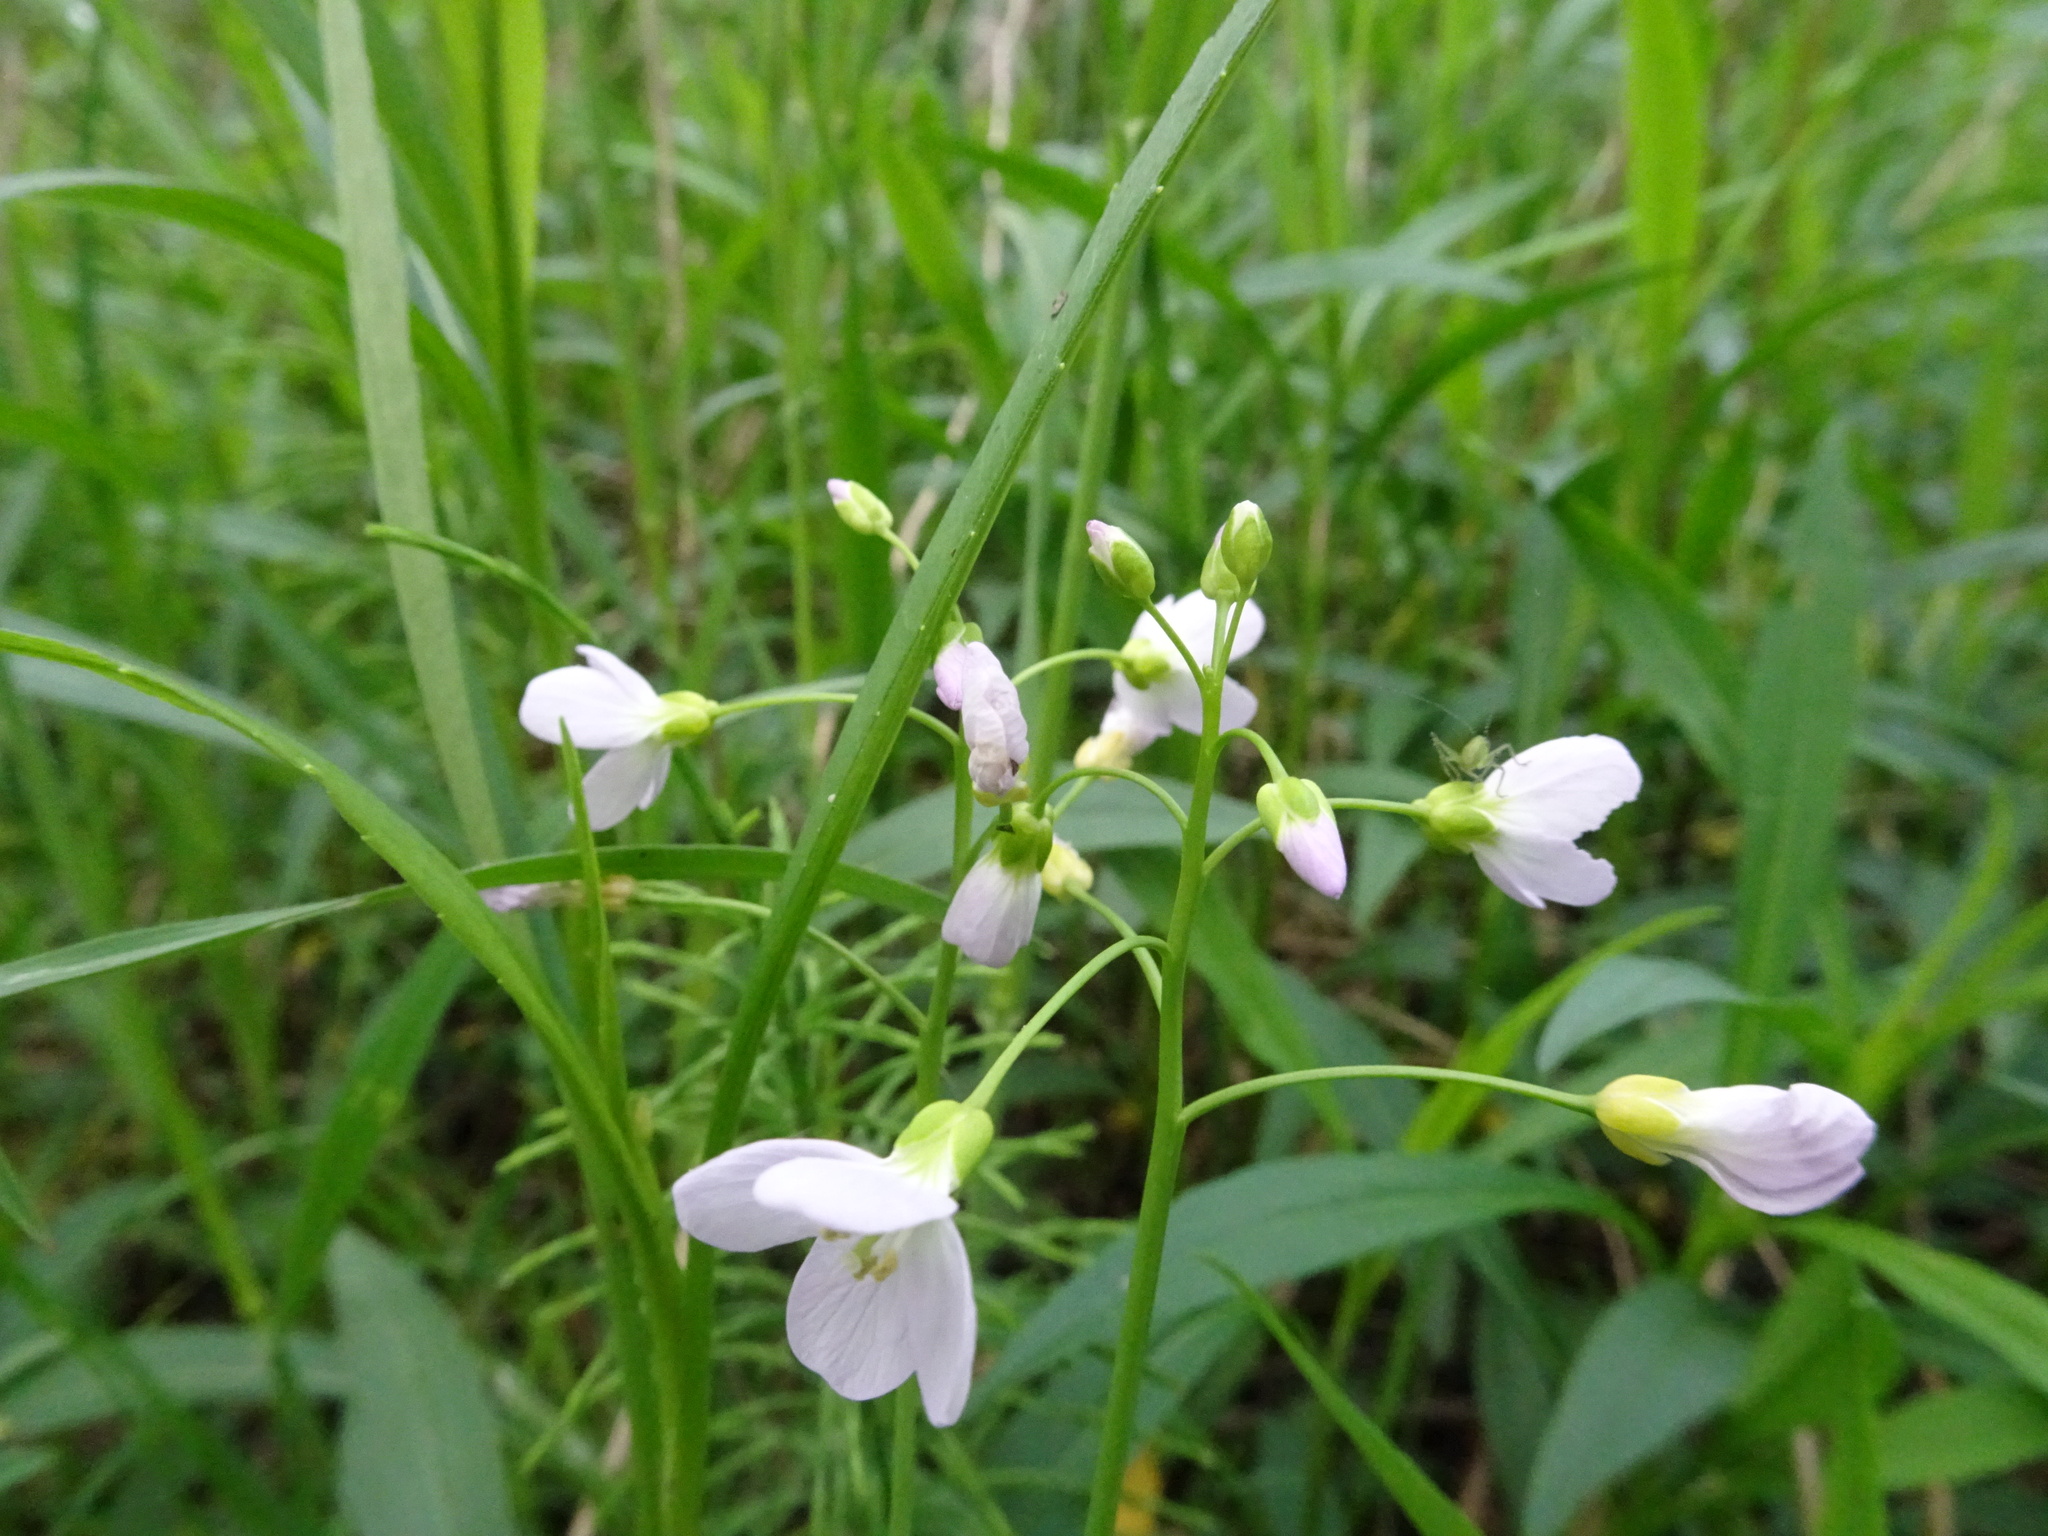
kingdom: Plantae
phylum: Tracheophyta
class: Magnoliopsida
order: Brassicales
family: Brassicaceae
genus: Cardamine
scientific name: Cardamine pratensis
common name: Cuckoo flower
